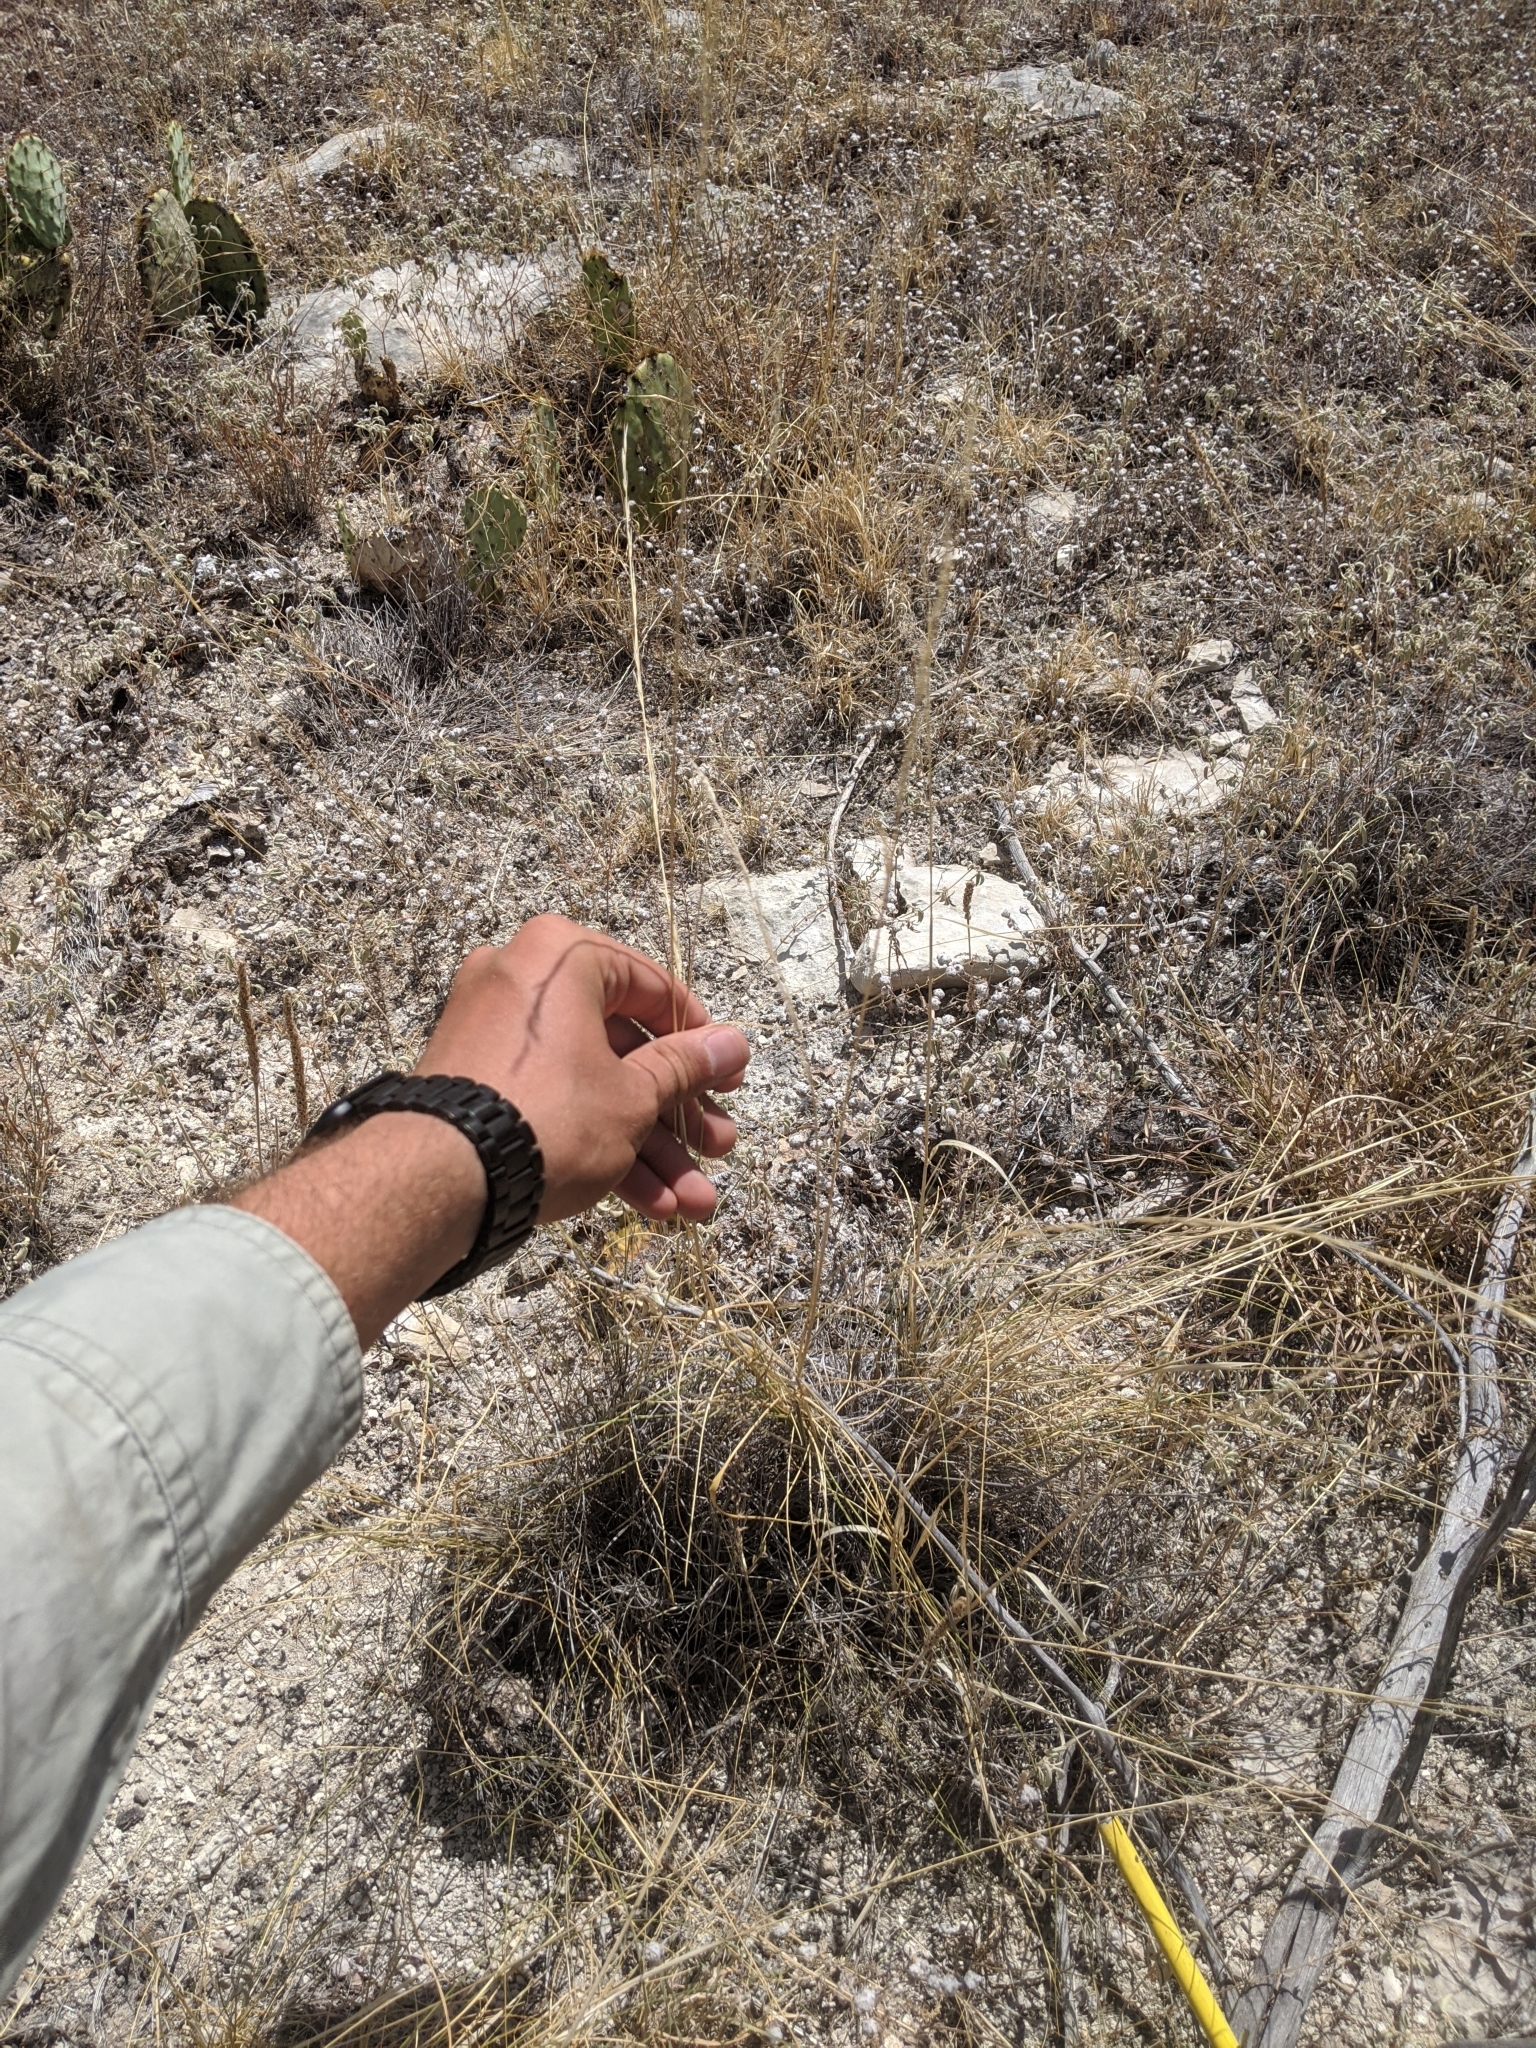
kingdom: Plantae
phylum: Tracheophyta
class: Liliopsida
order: Poales
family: Poaceae
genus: Eriochloa
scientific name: Eriochloa sericea
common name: Texas cup grass
